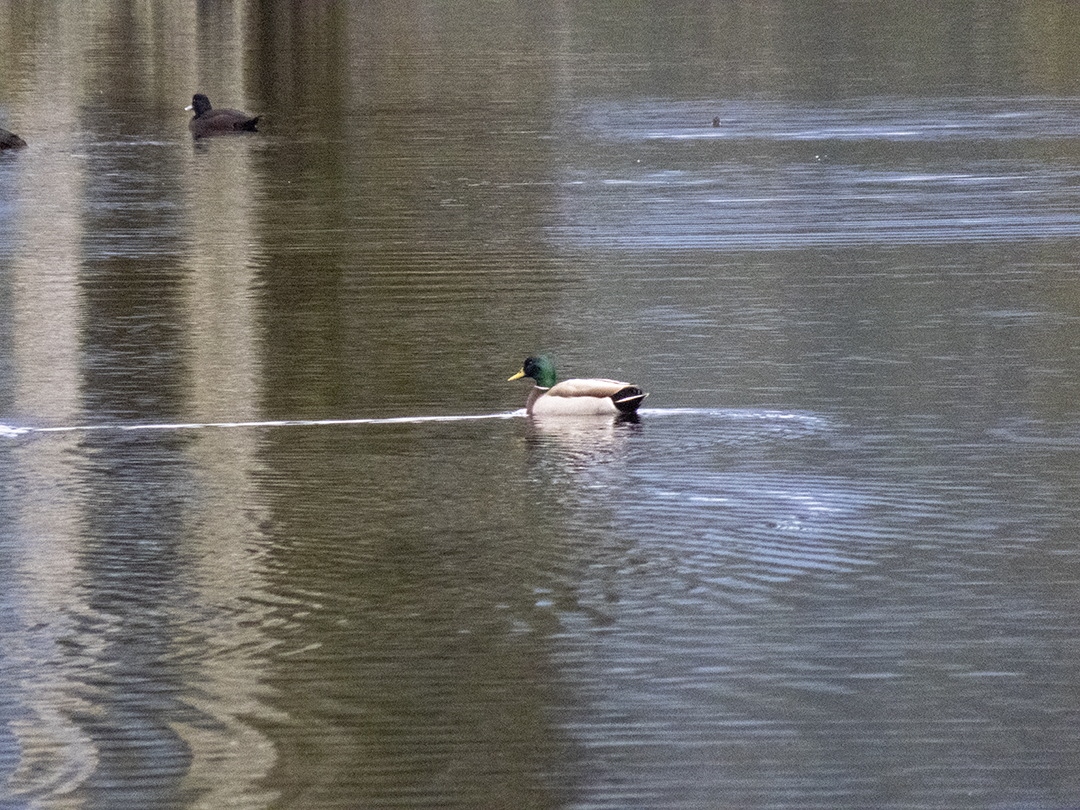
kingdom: Animalia
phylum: Chordata
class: Aves
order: Anseriformes
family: Anatidae
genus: Anas
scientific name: Anas platyrhynchos
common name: Mallard
